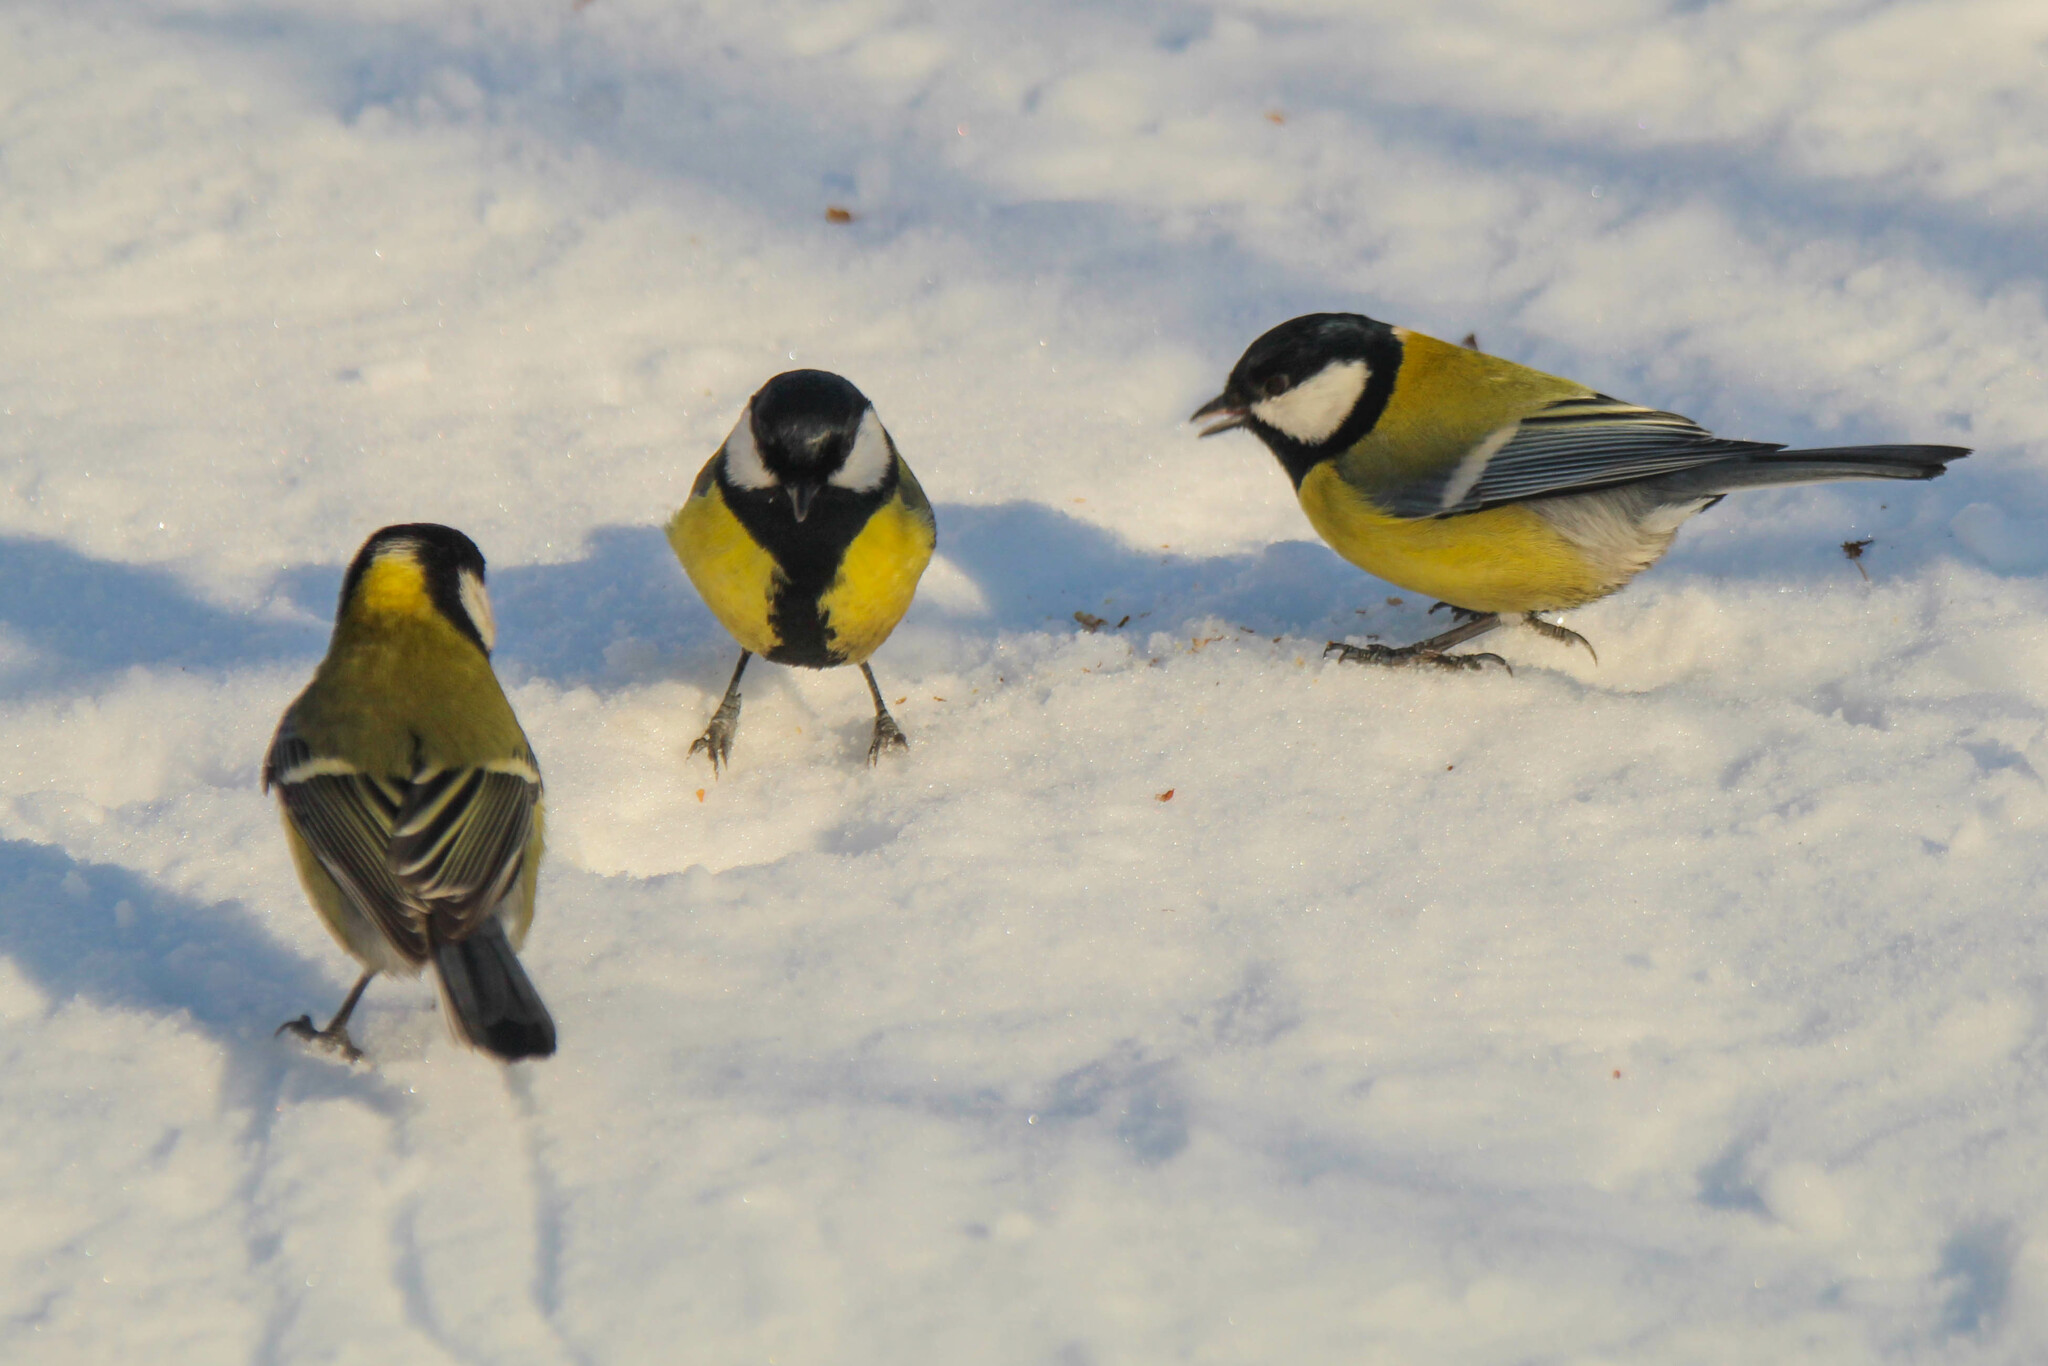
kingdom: Animalia
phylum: Chordata
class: Aves
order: Passeriformes
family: Paridae
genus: Parus
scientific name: Parus major
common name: Great tit
